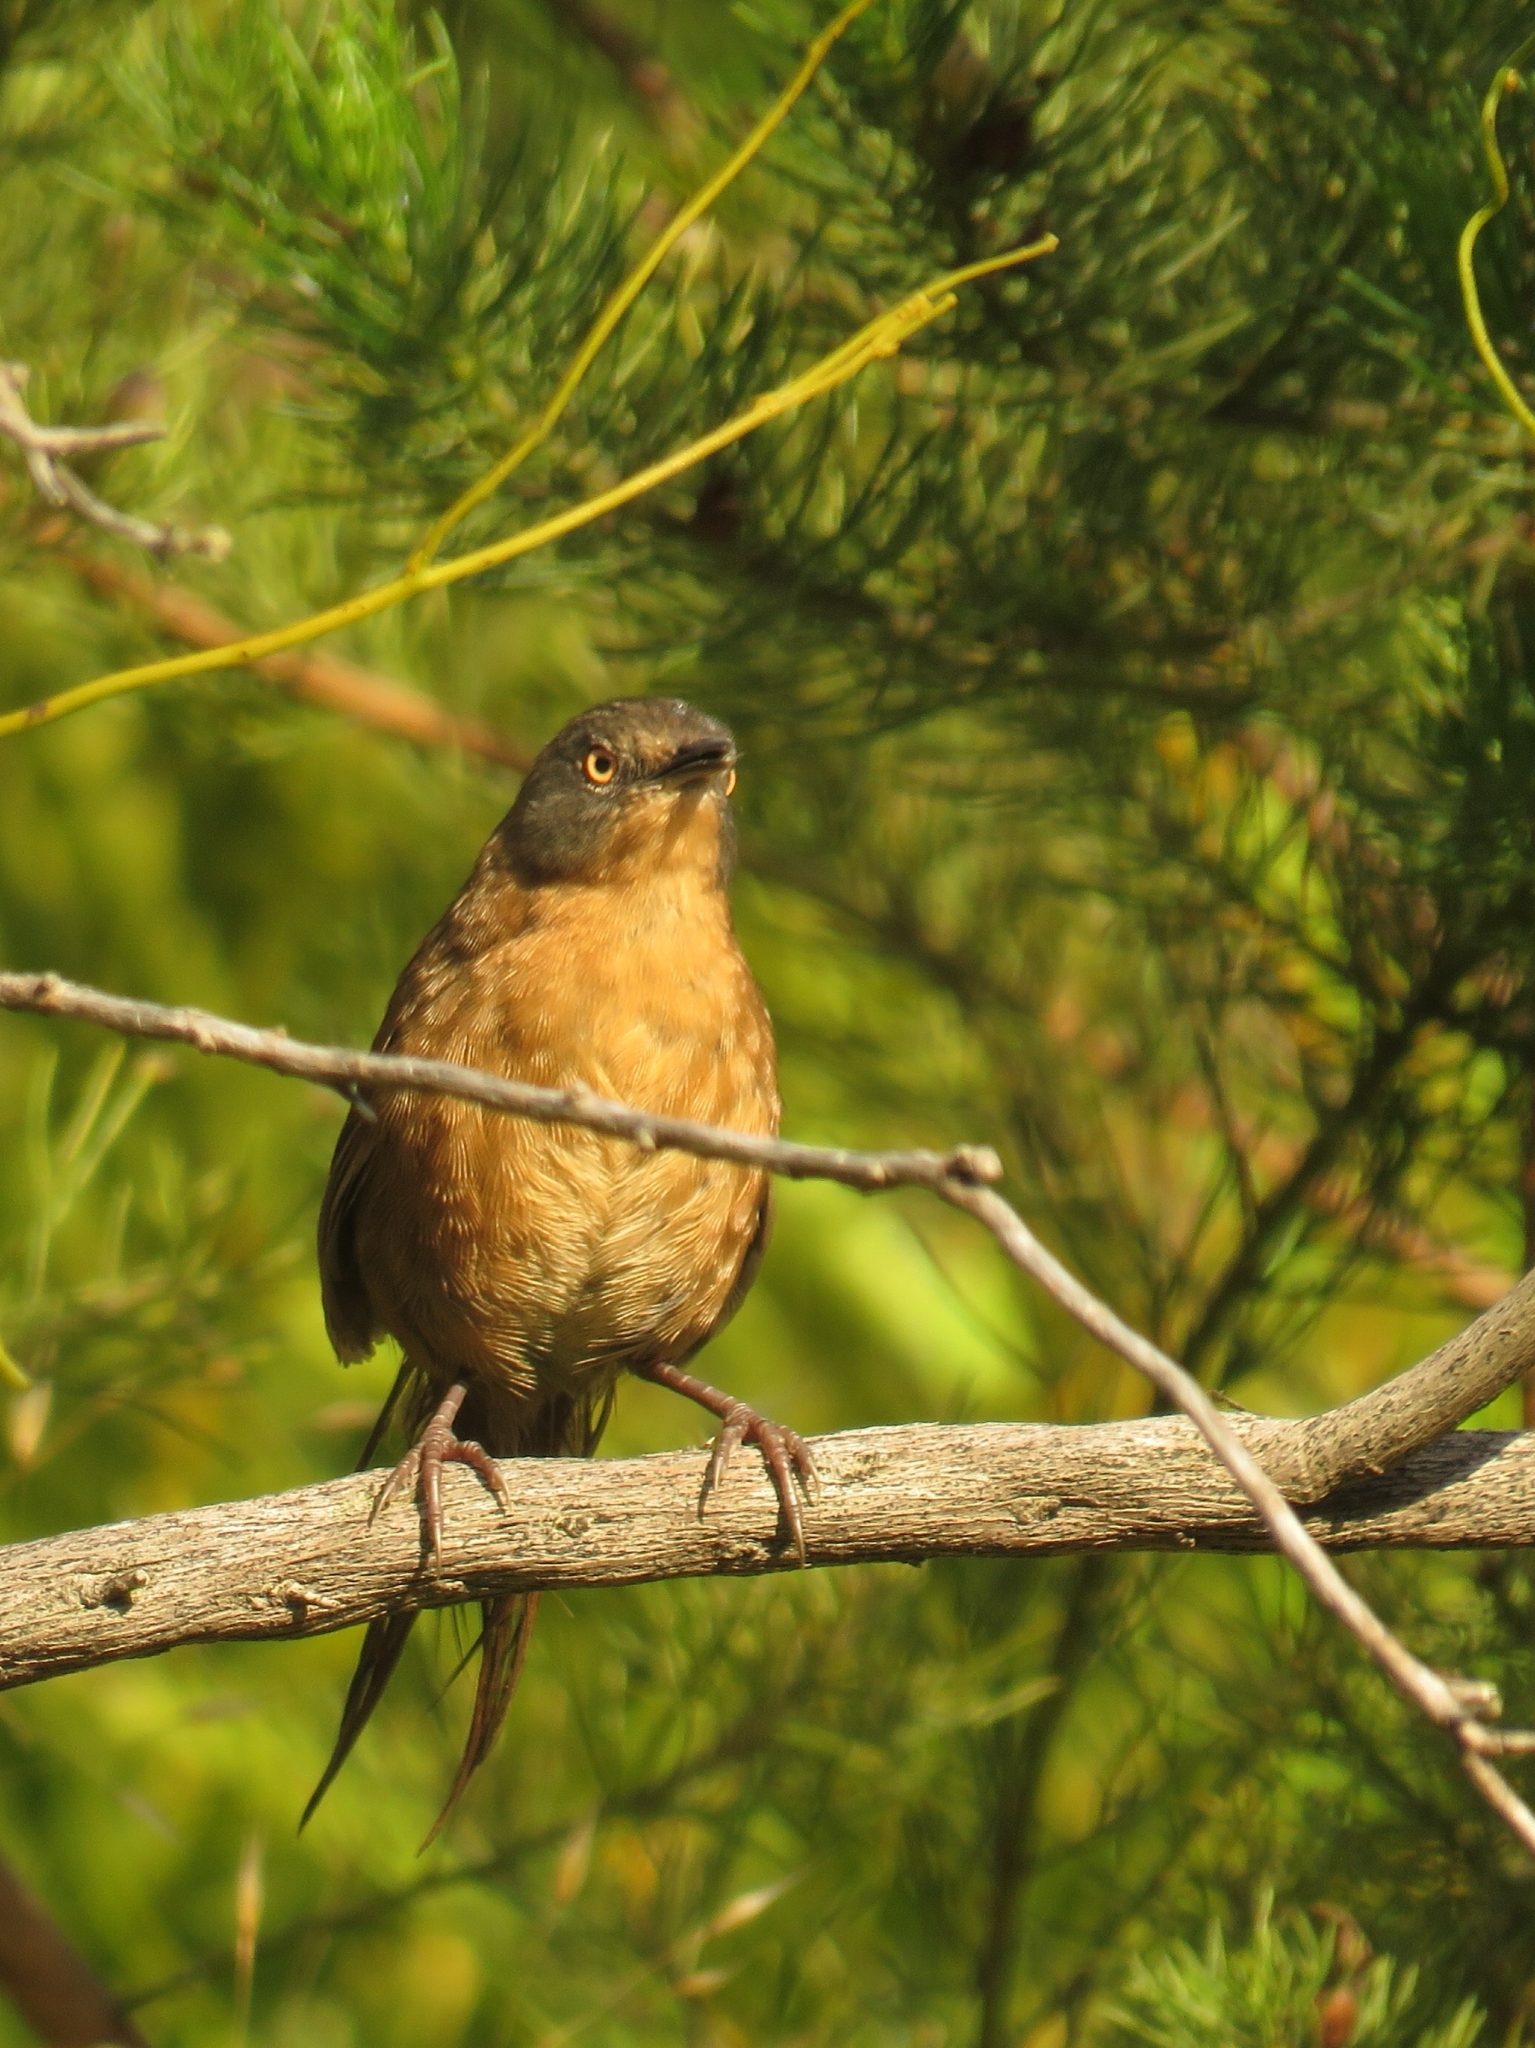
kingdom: Animalia
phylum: Chordata
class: Aves
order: Passeriformes
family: Macrosphenidae
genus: Cryptillas
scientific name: Cryptillas victorini
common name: Victorin's warbler
